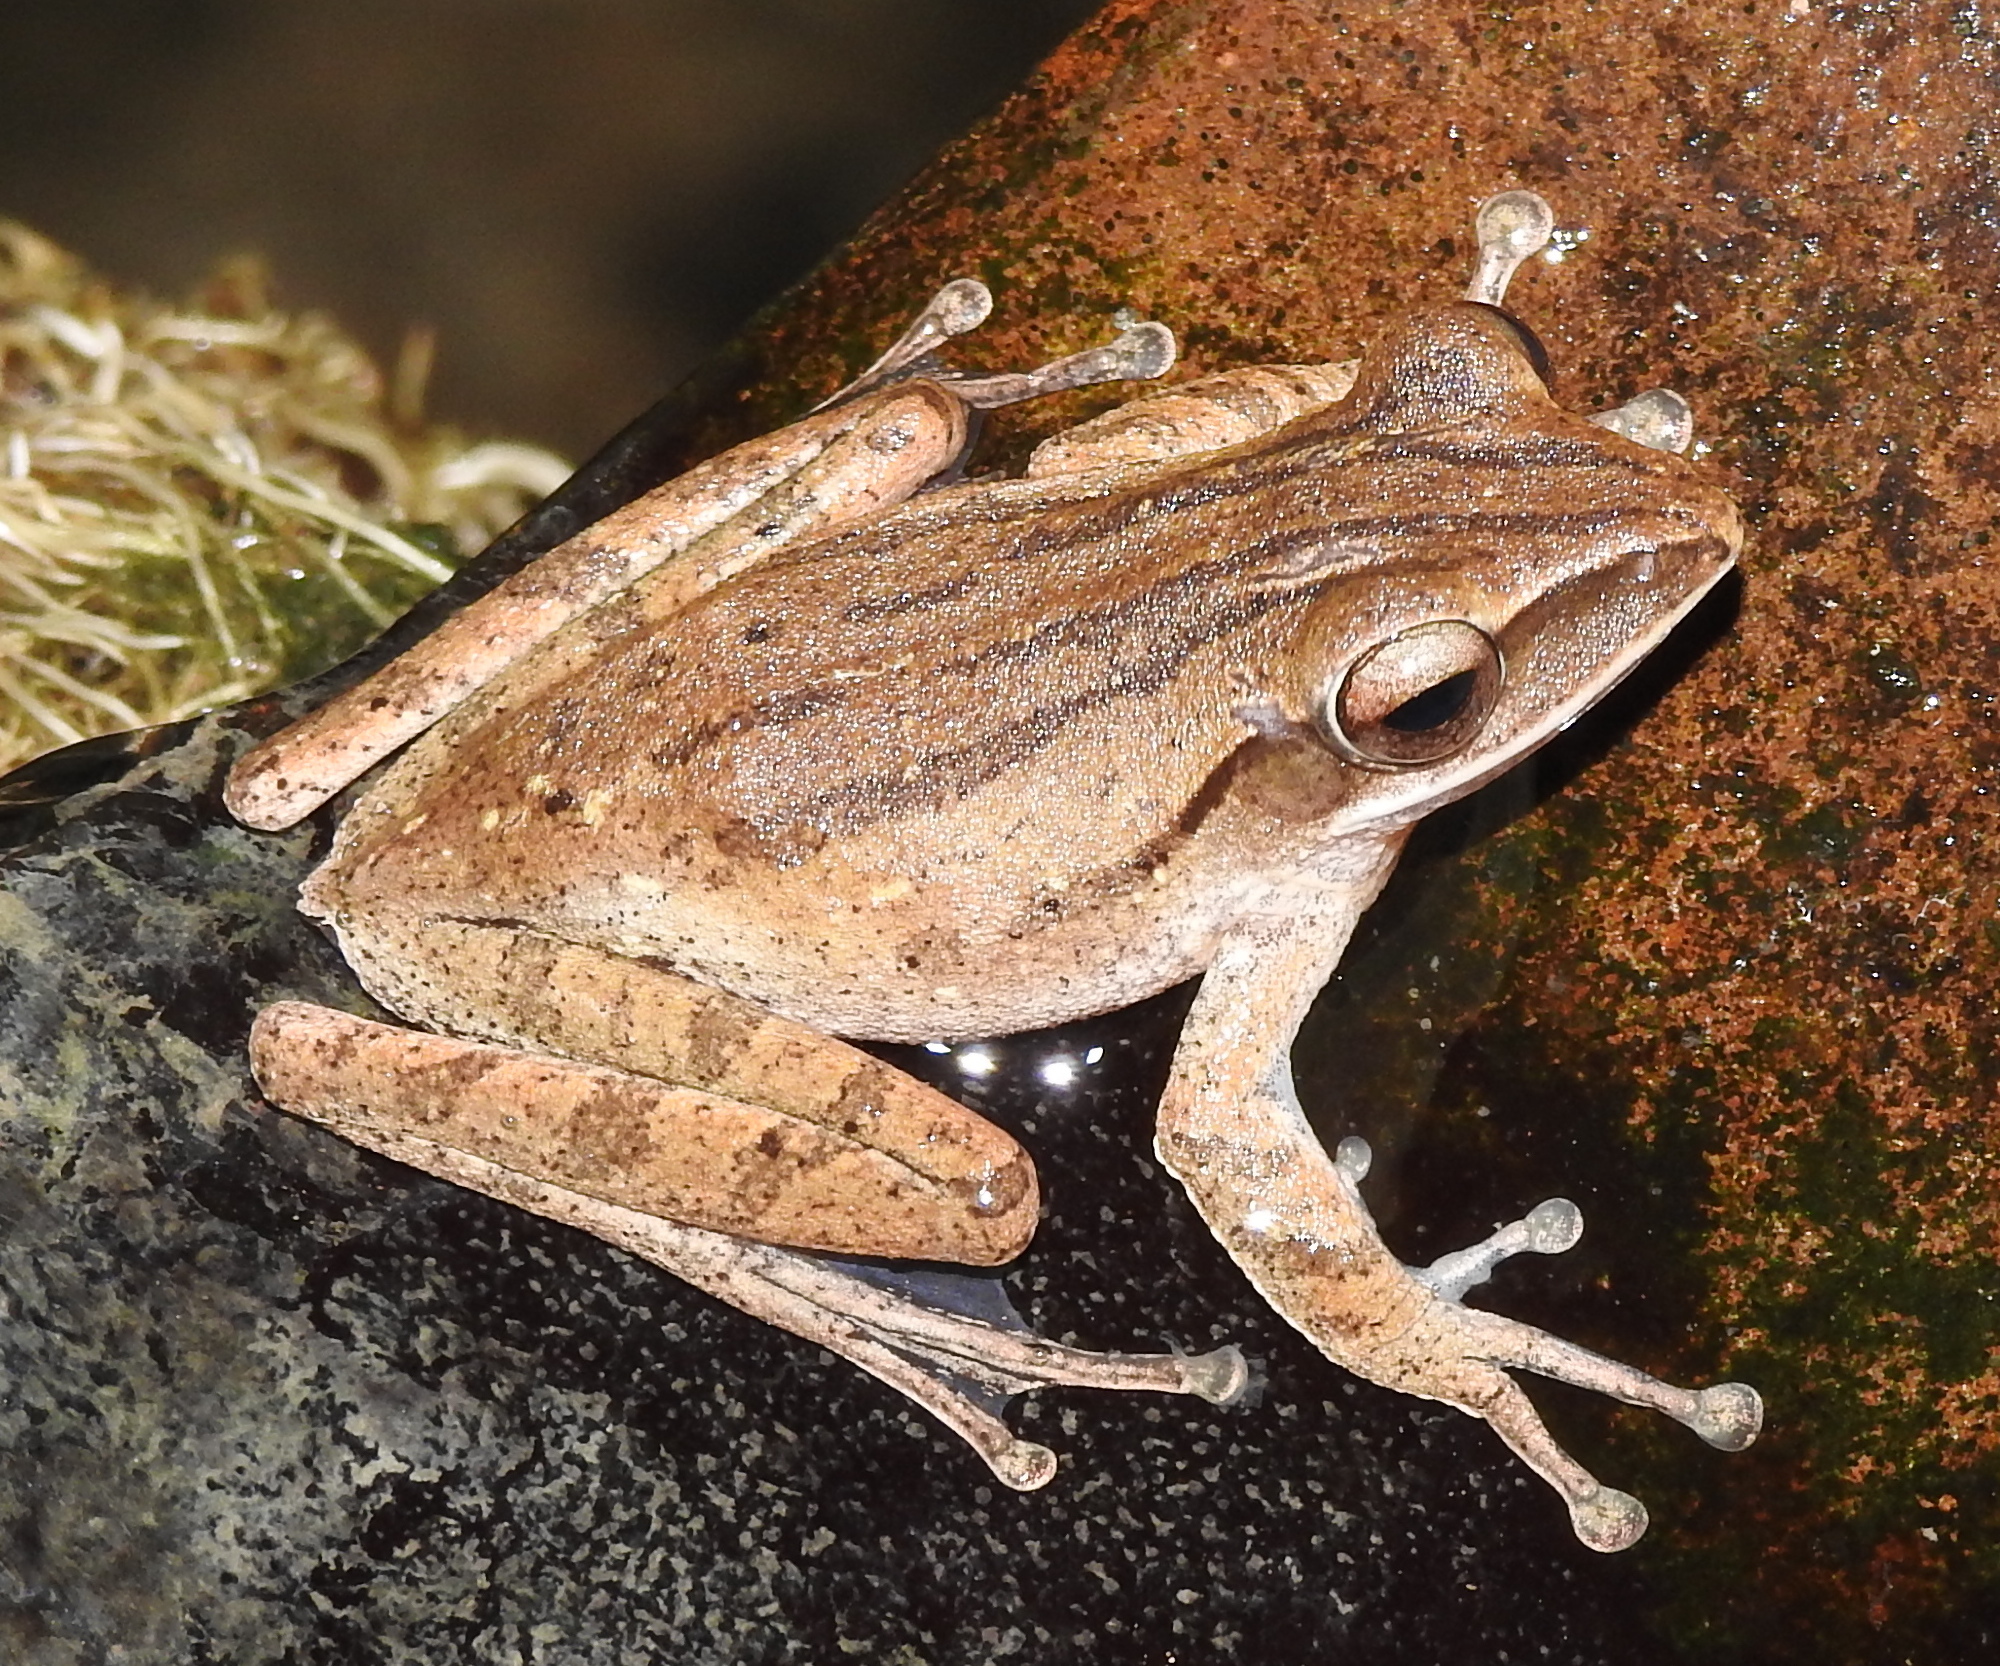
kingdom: Animalia
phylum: Chordata
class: Amphibia
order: Anura
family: Rhacophoridae
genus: Polypedates
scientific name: Polypedates leucomystax
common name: Common tree frog/four-lined tree frog
